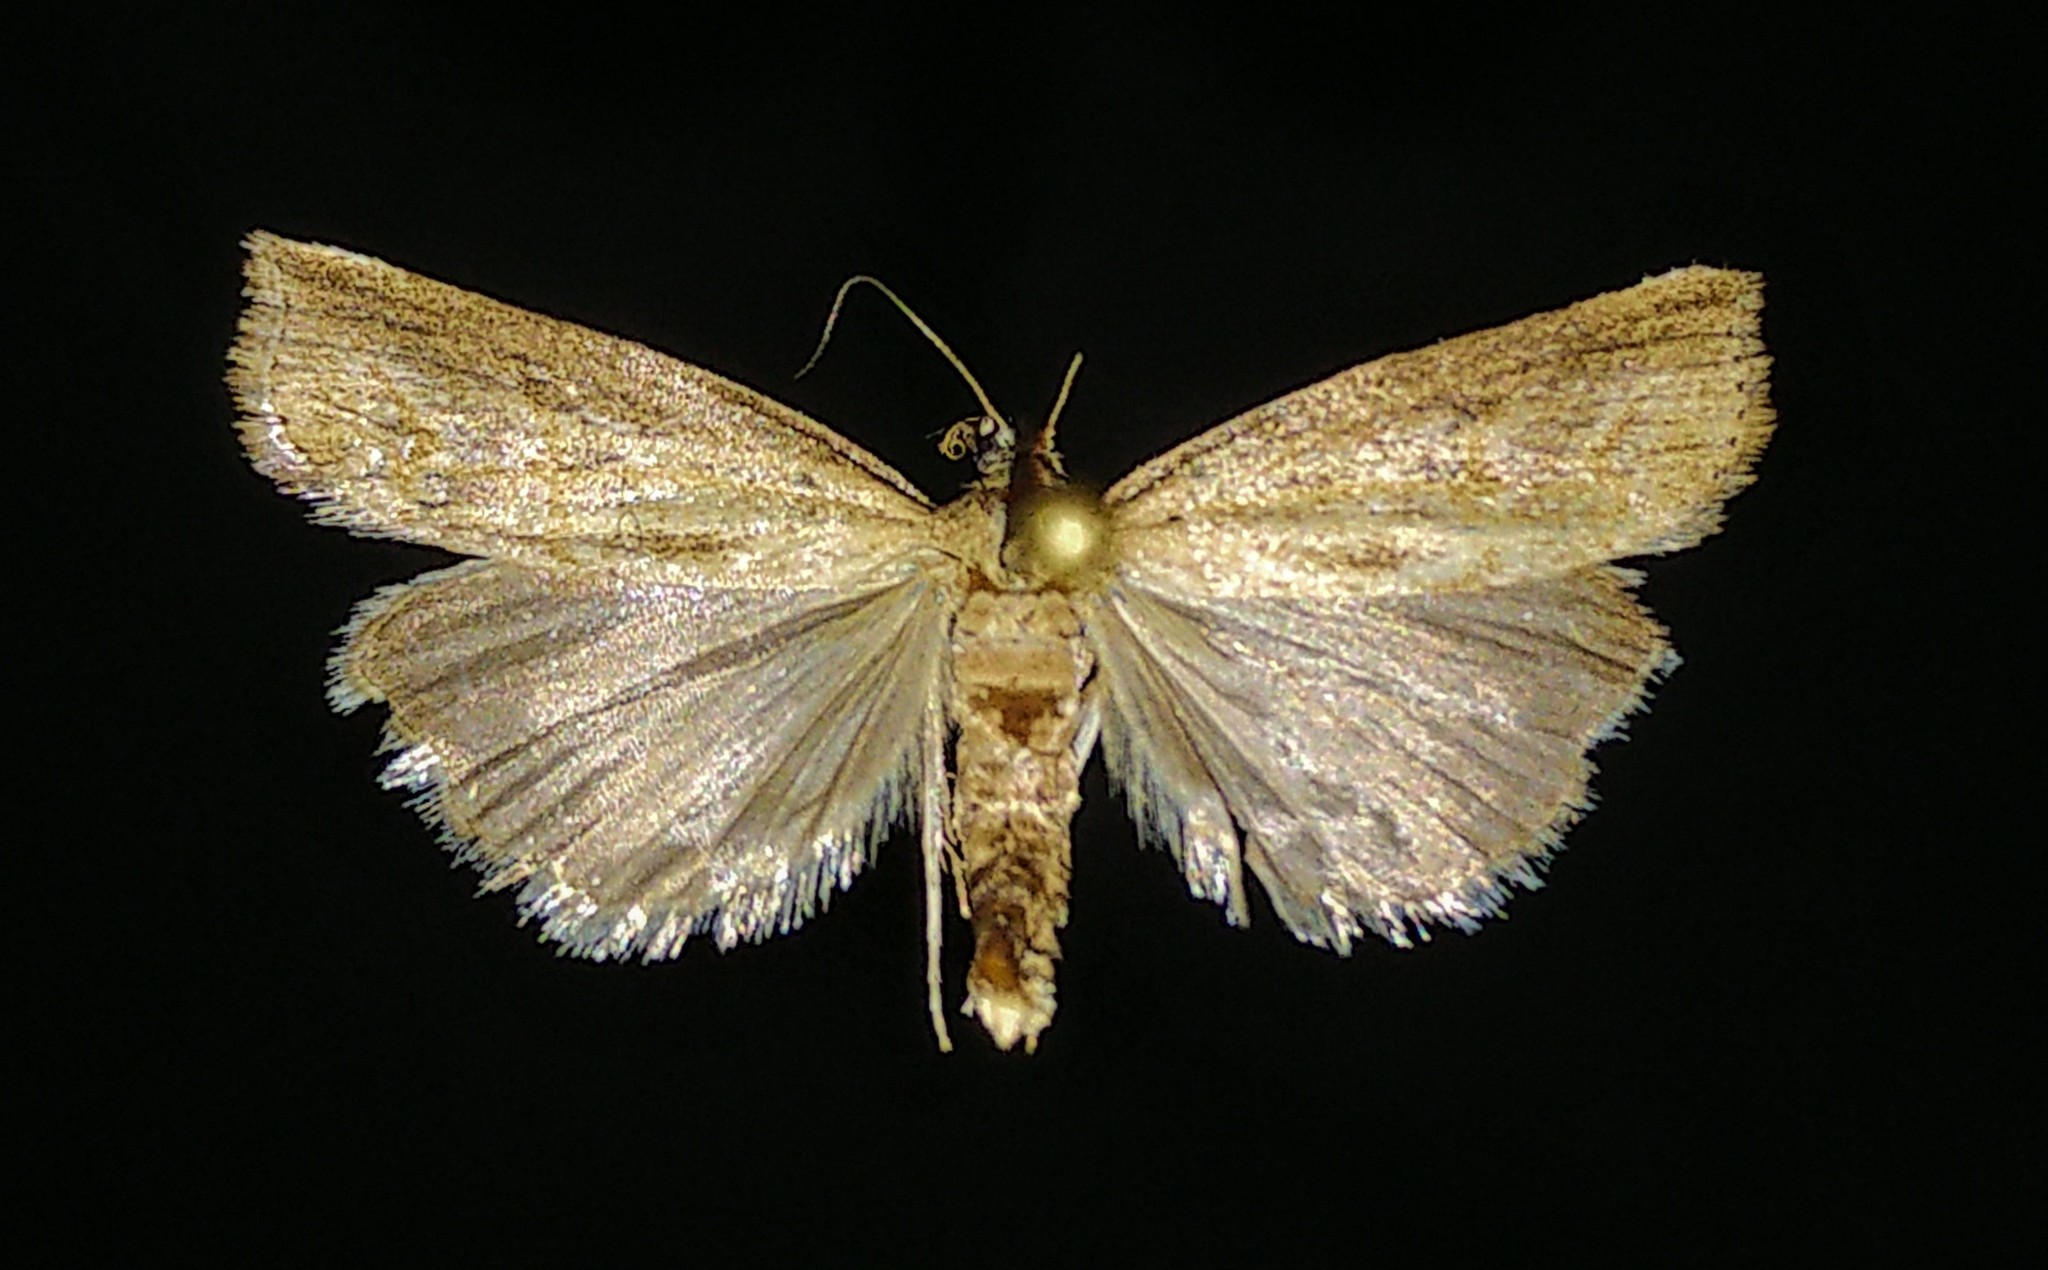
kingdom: Animalia
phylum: Arthropoda
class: Insecta
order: Lepidoptera
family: Crambidae
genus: Neodactria
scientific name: Neodactria luteolellus
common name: Mottled grass-veneer
